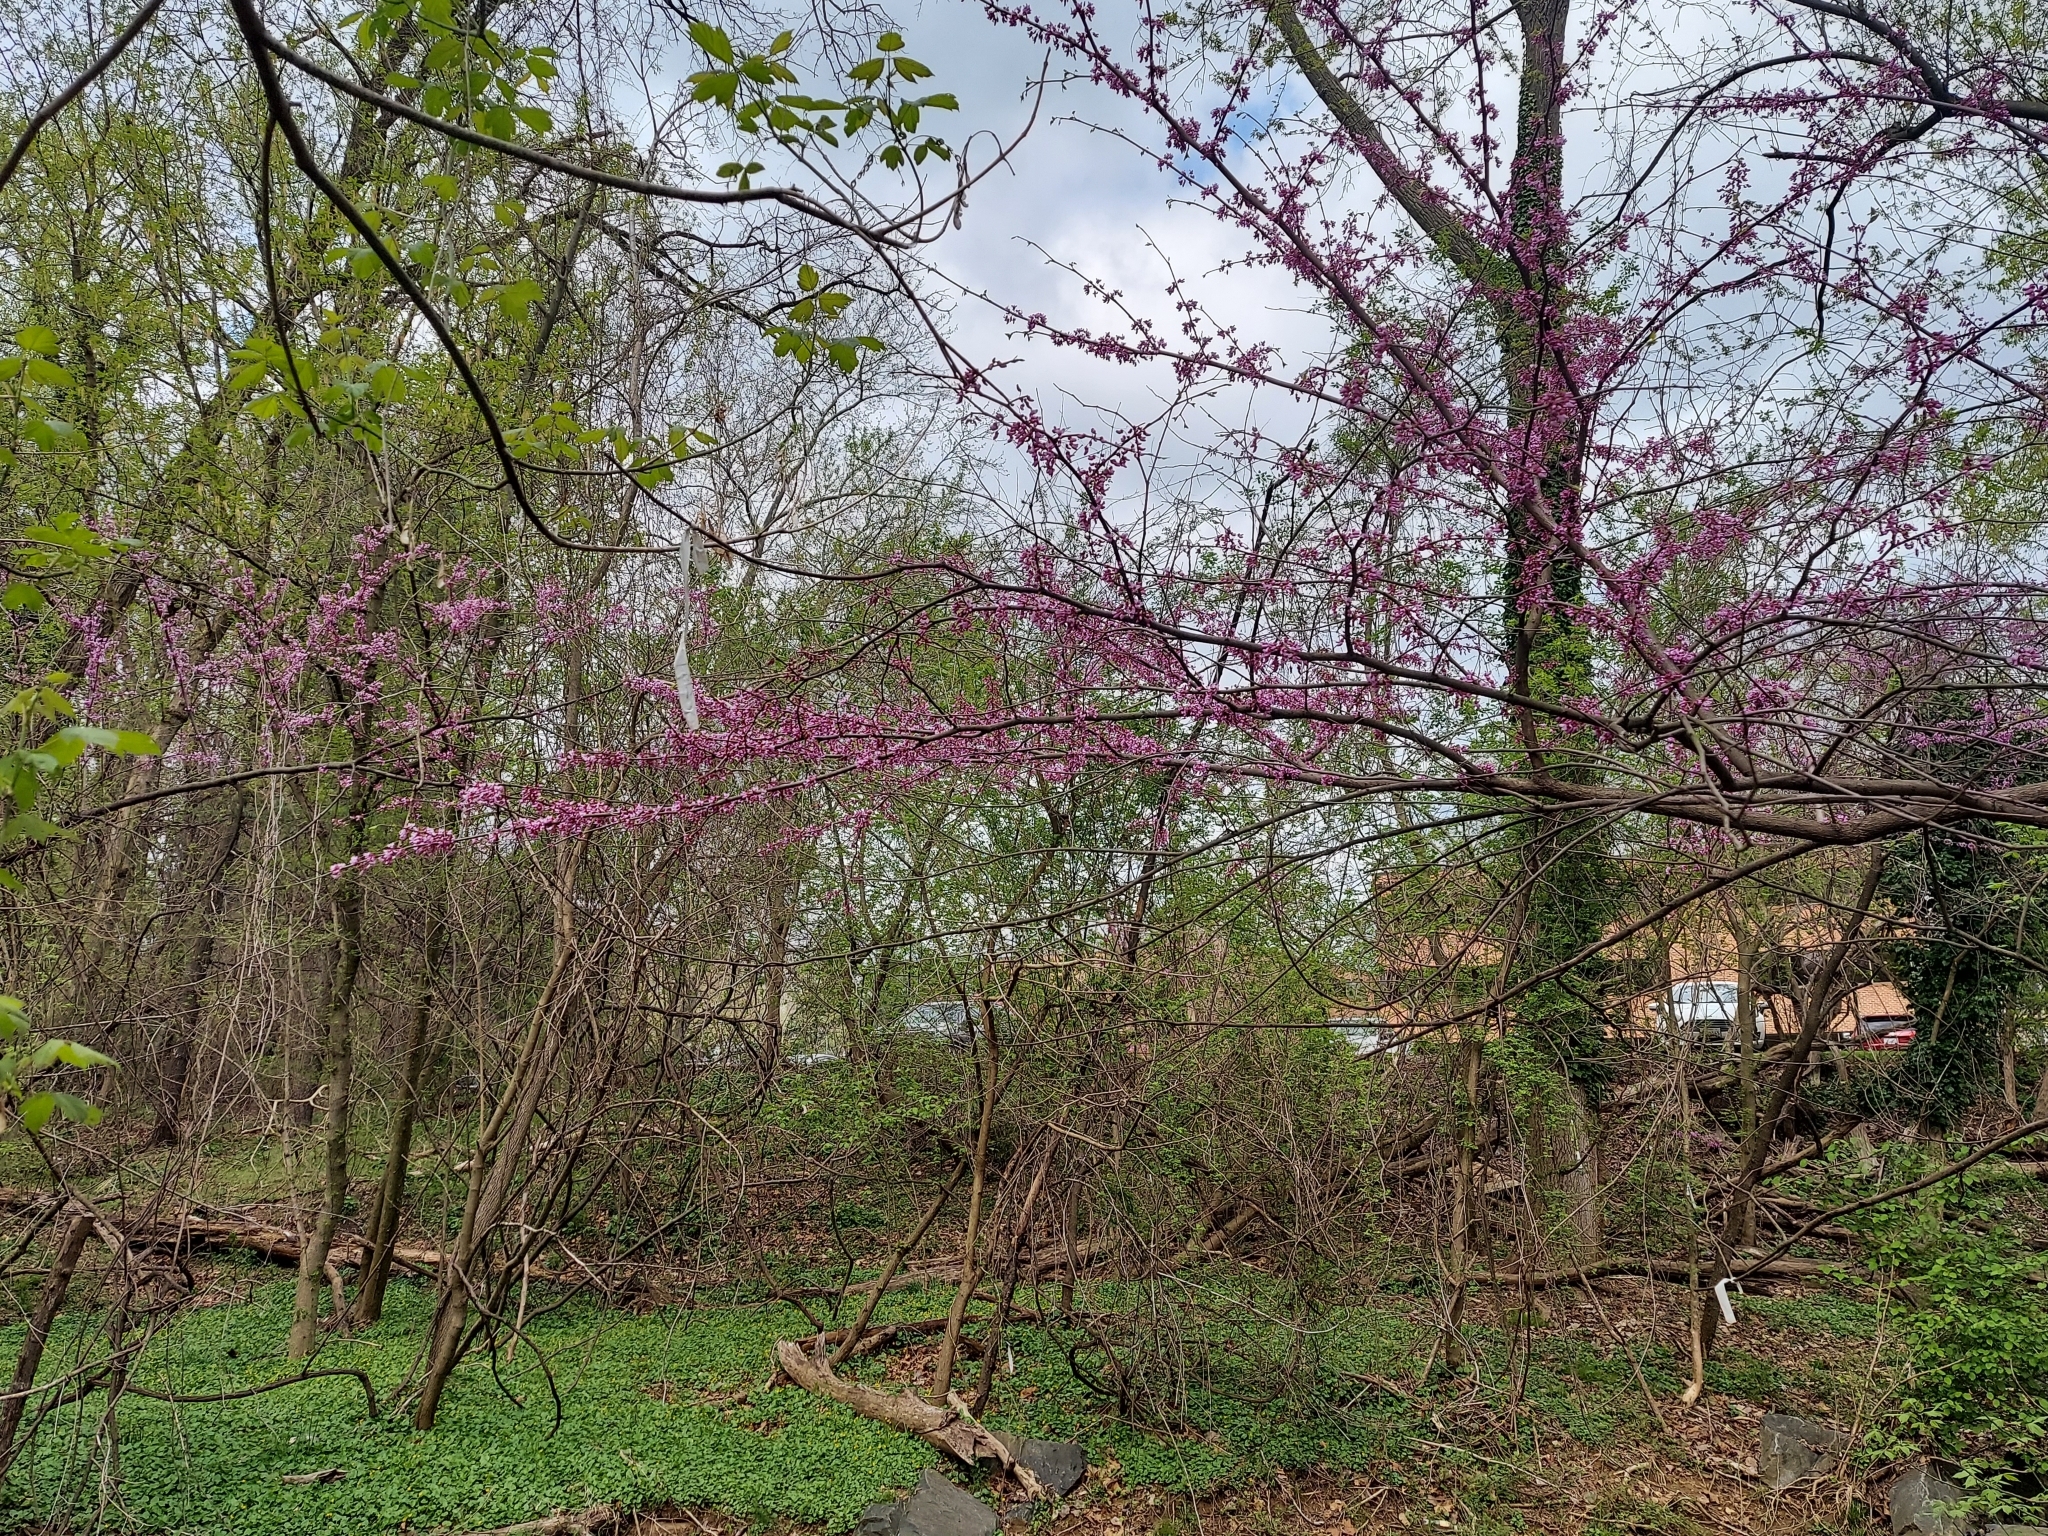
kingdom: Plantae
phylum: Tracheophyta
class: Magnoliopsida
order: Fabales
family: Fabaceae
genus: Cercis
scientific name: Cercis canadensis
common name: Eastern redbud
